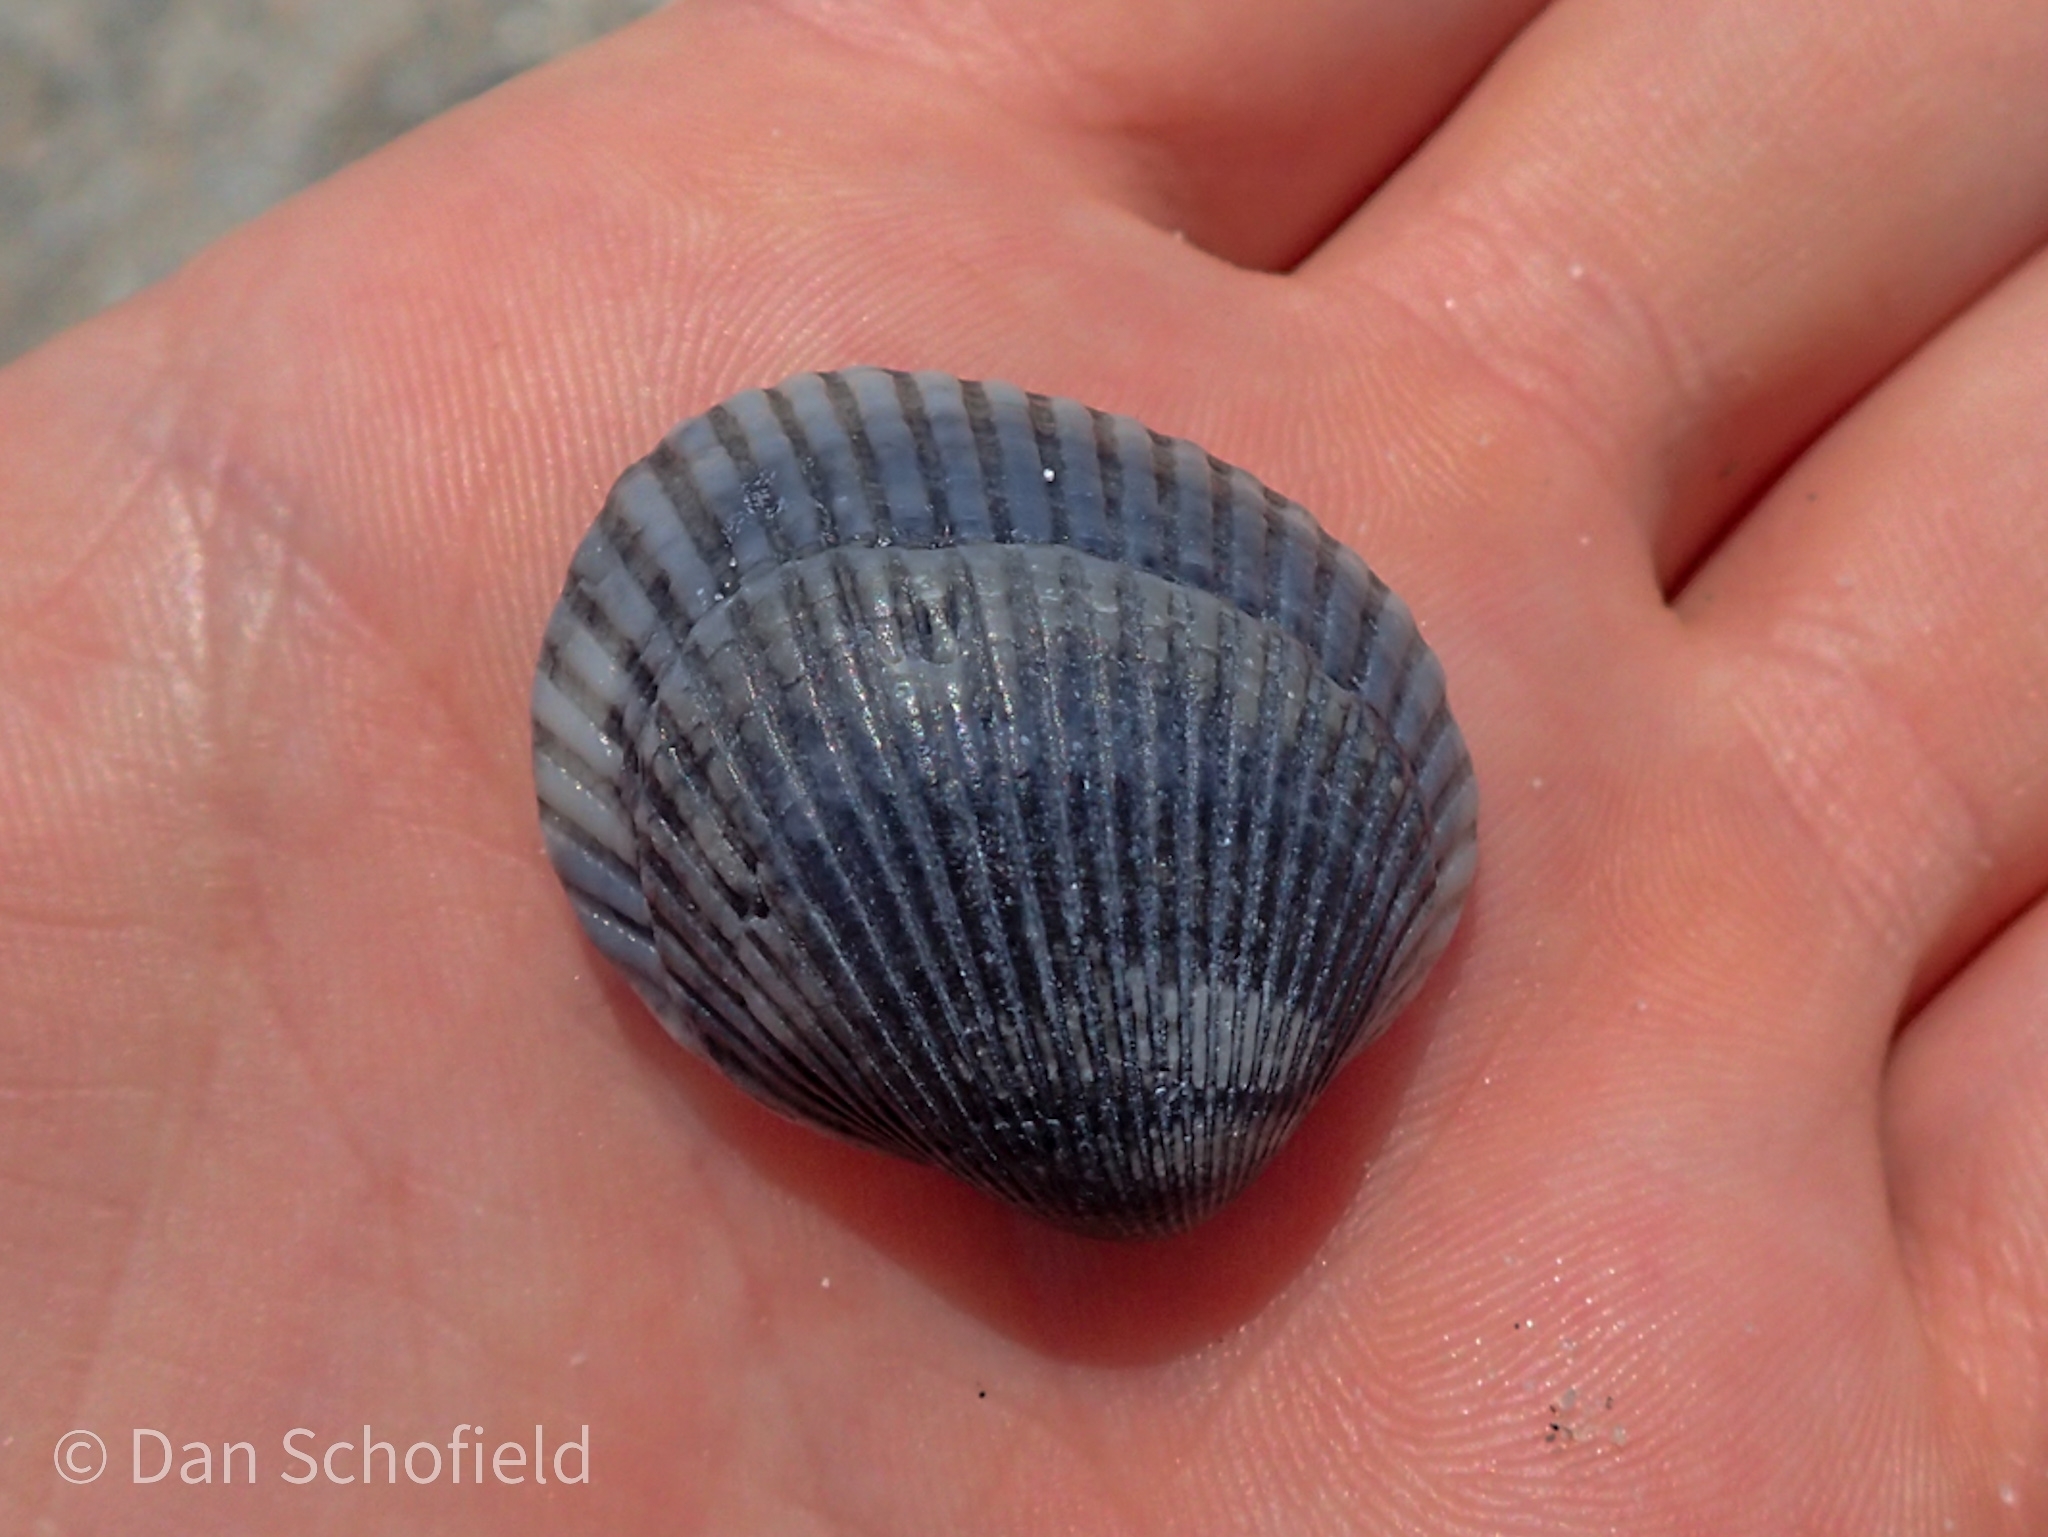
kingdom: Animalia
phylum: Mollusca
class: Bivalvia
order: Arcida
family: Arcidae
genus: Lunarca
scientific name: Lunarca ovalis
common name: Blood ark
